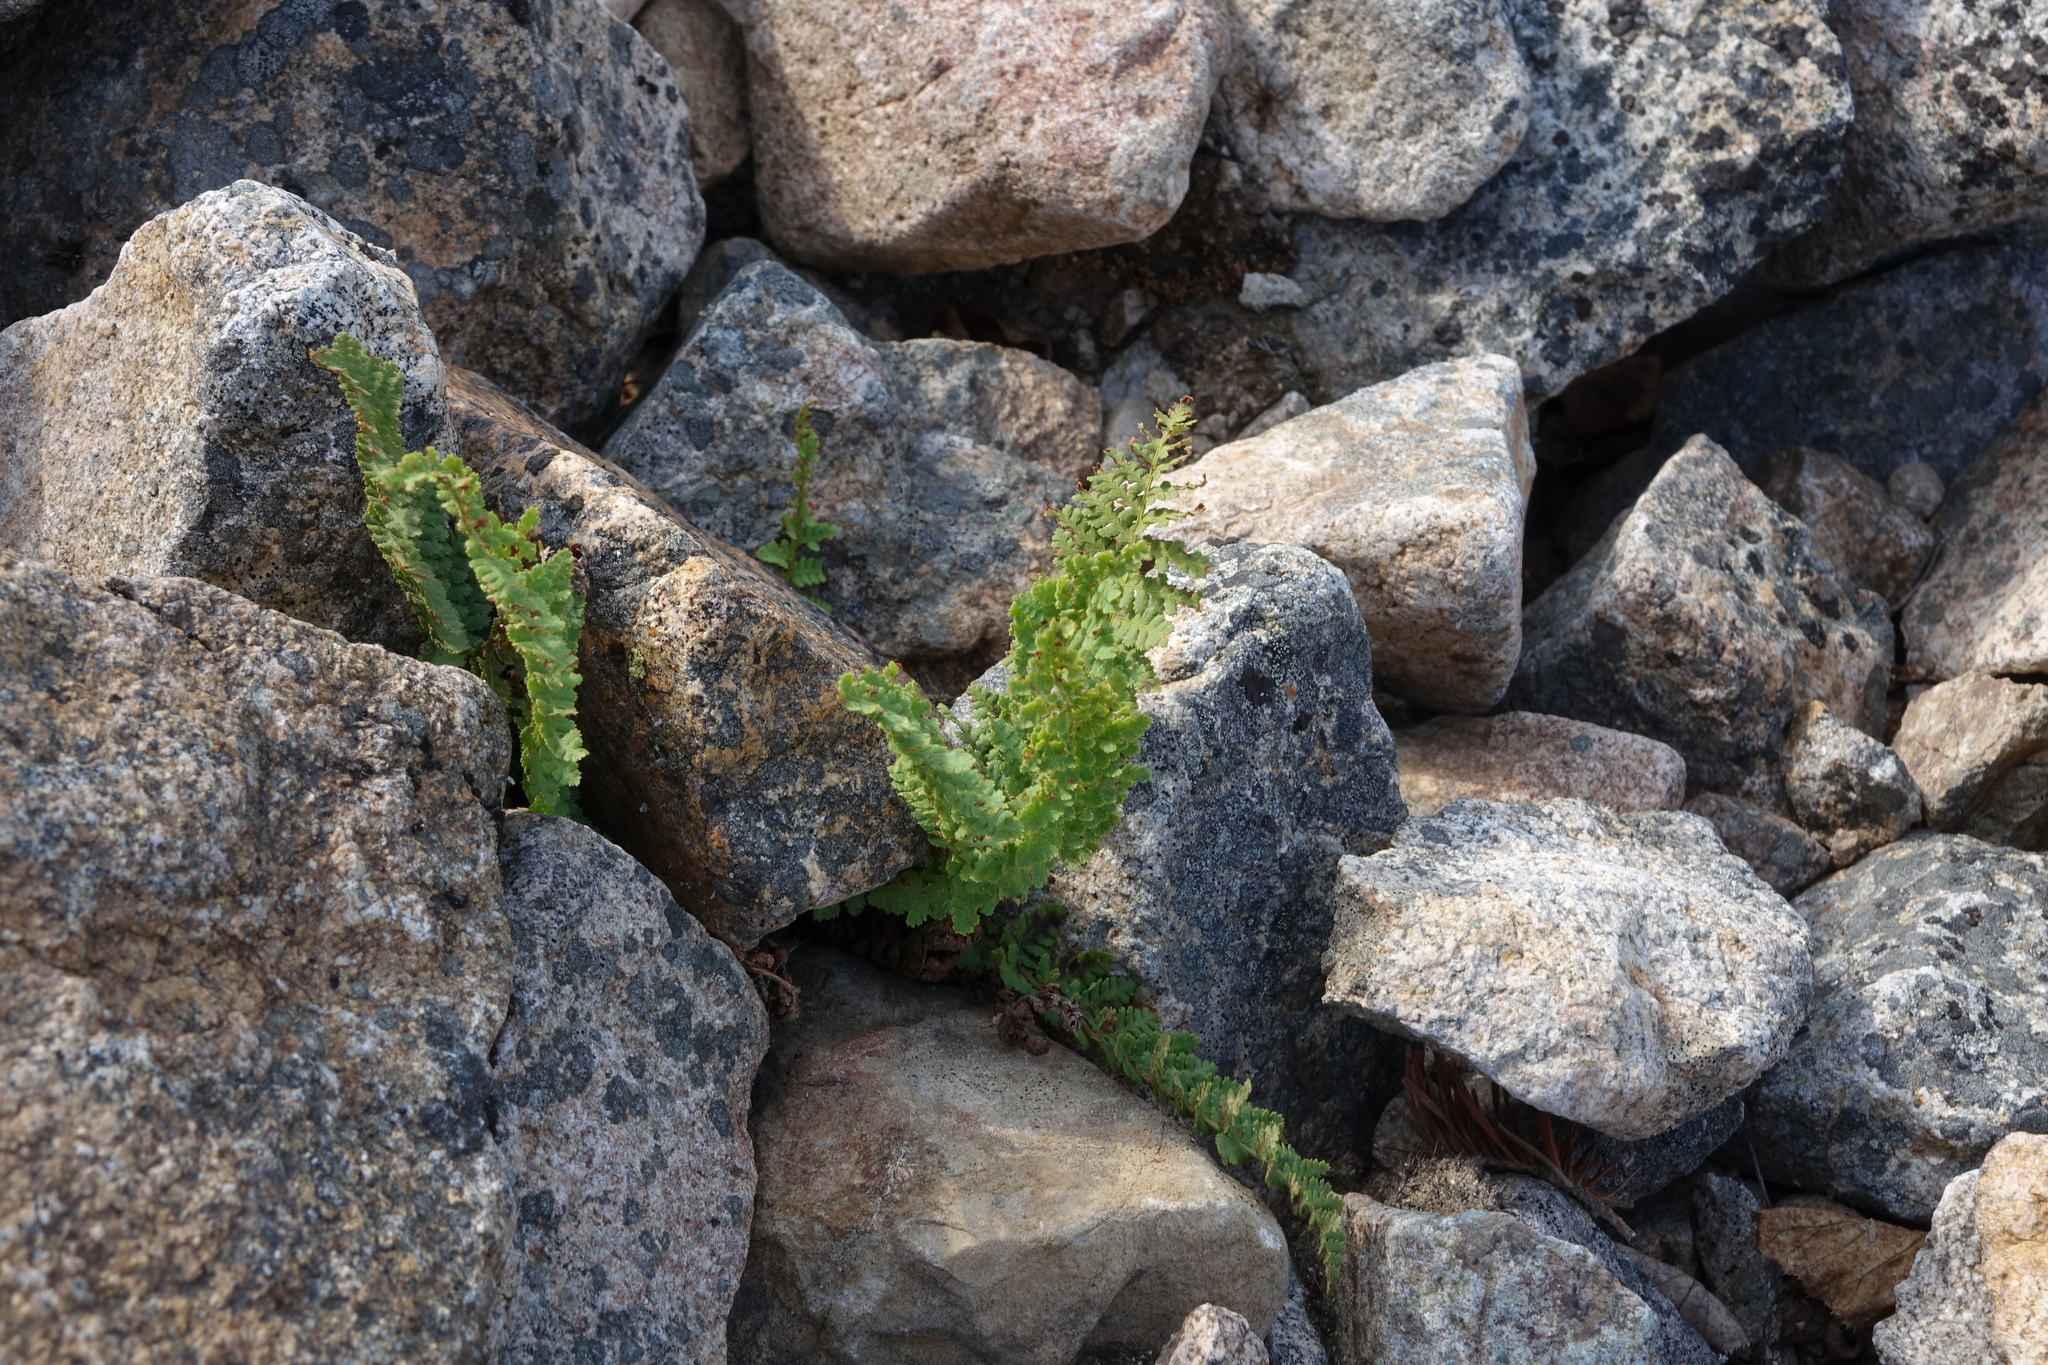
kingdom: Plantae
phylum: Tracheophyta
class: Polypodiopsida
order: Polypodiales
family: Dryopteridaceae
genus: Dryopteris
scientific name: Dryopteris fragrans
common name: Fragrant wood fern
